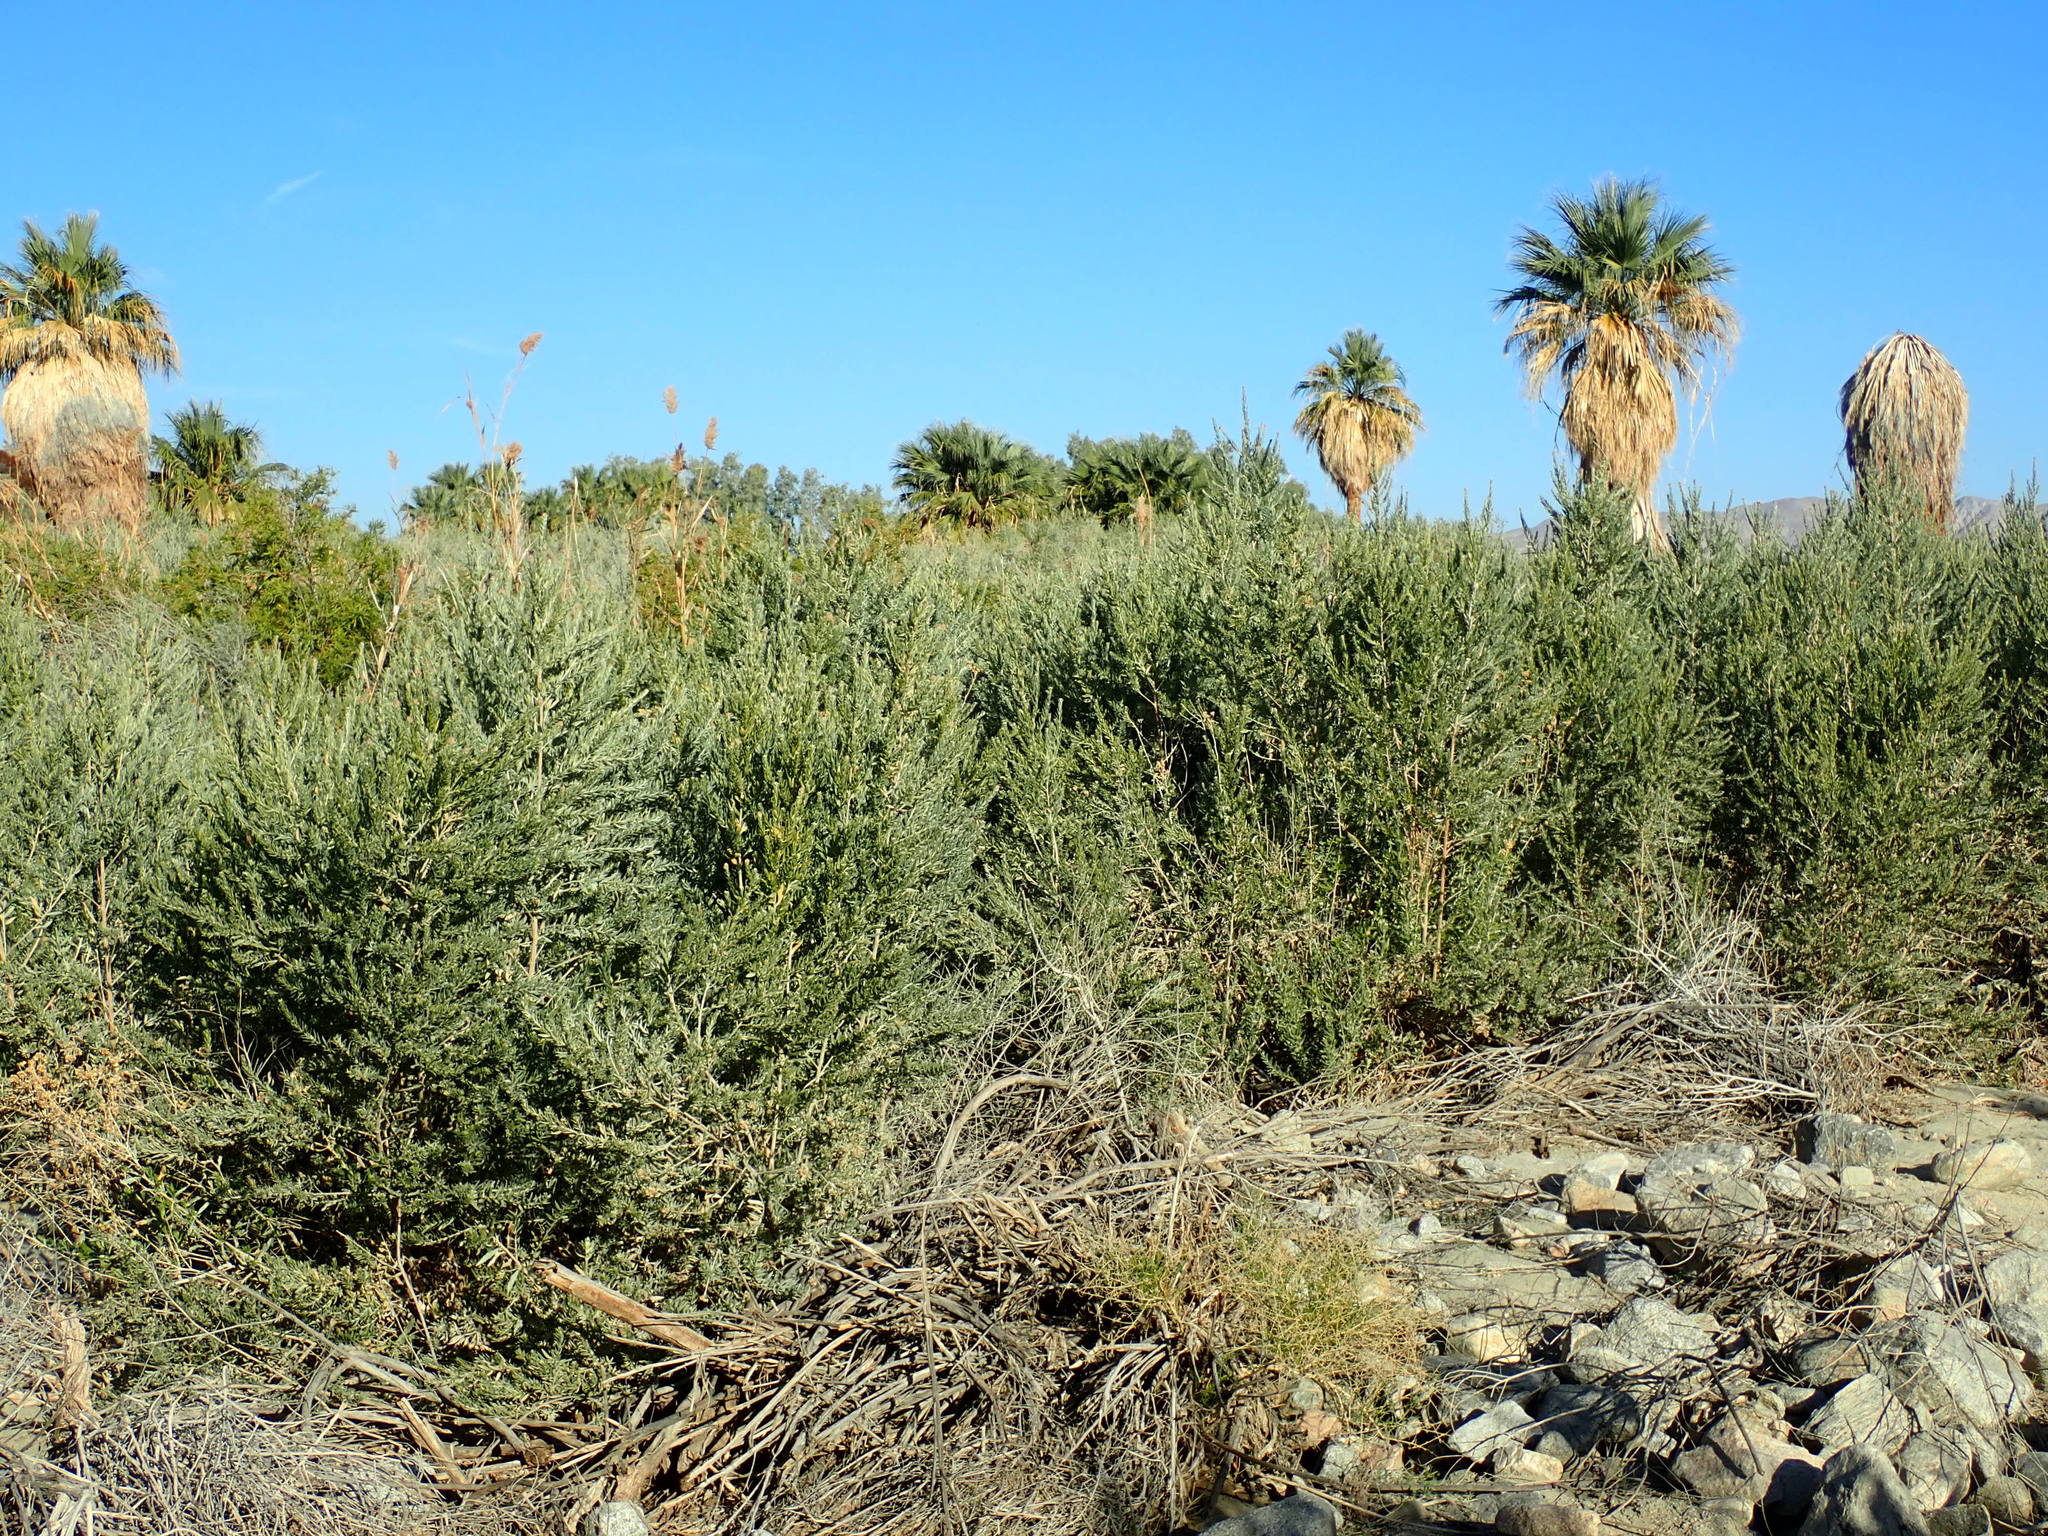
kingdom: Plantae
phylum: Tracheophyta
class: Magnoliopsida
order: Asterales
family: Asteraceae
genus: Pluchea
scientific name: Pluchea sericea
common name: Arrow-weed
